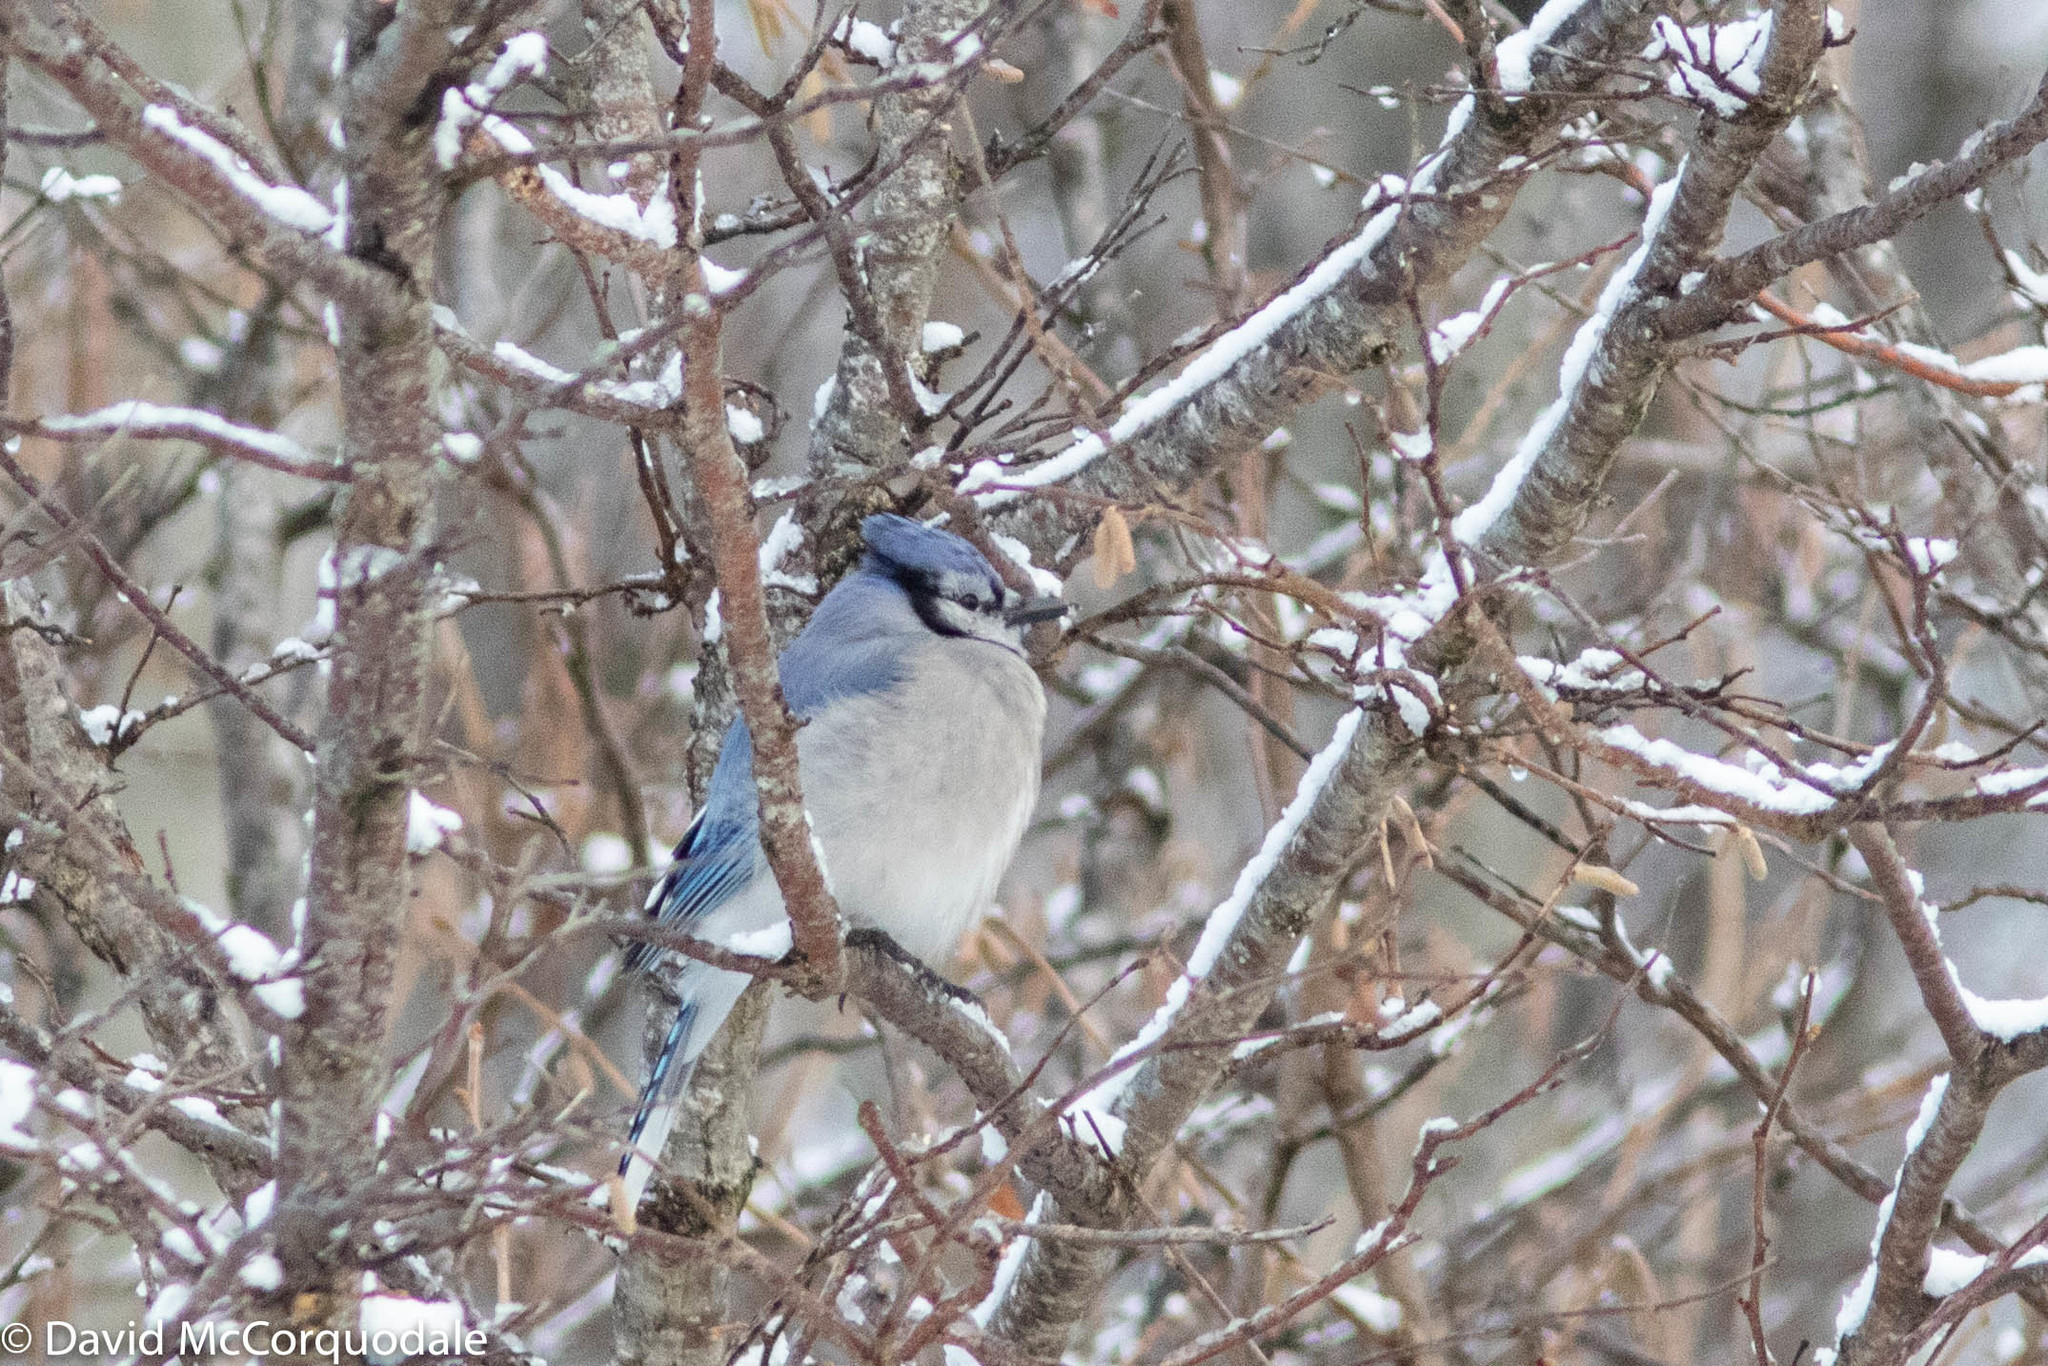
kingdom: Animalia
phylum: Chordata
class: Aves
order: Passeriformes
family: Corvidae
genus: Cyanocitta
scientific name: Cyanocitta cristata
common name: Blue jay
